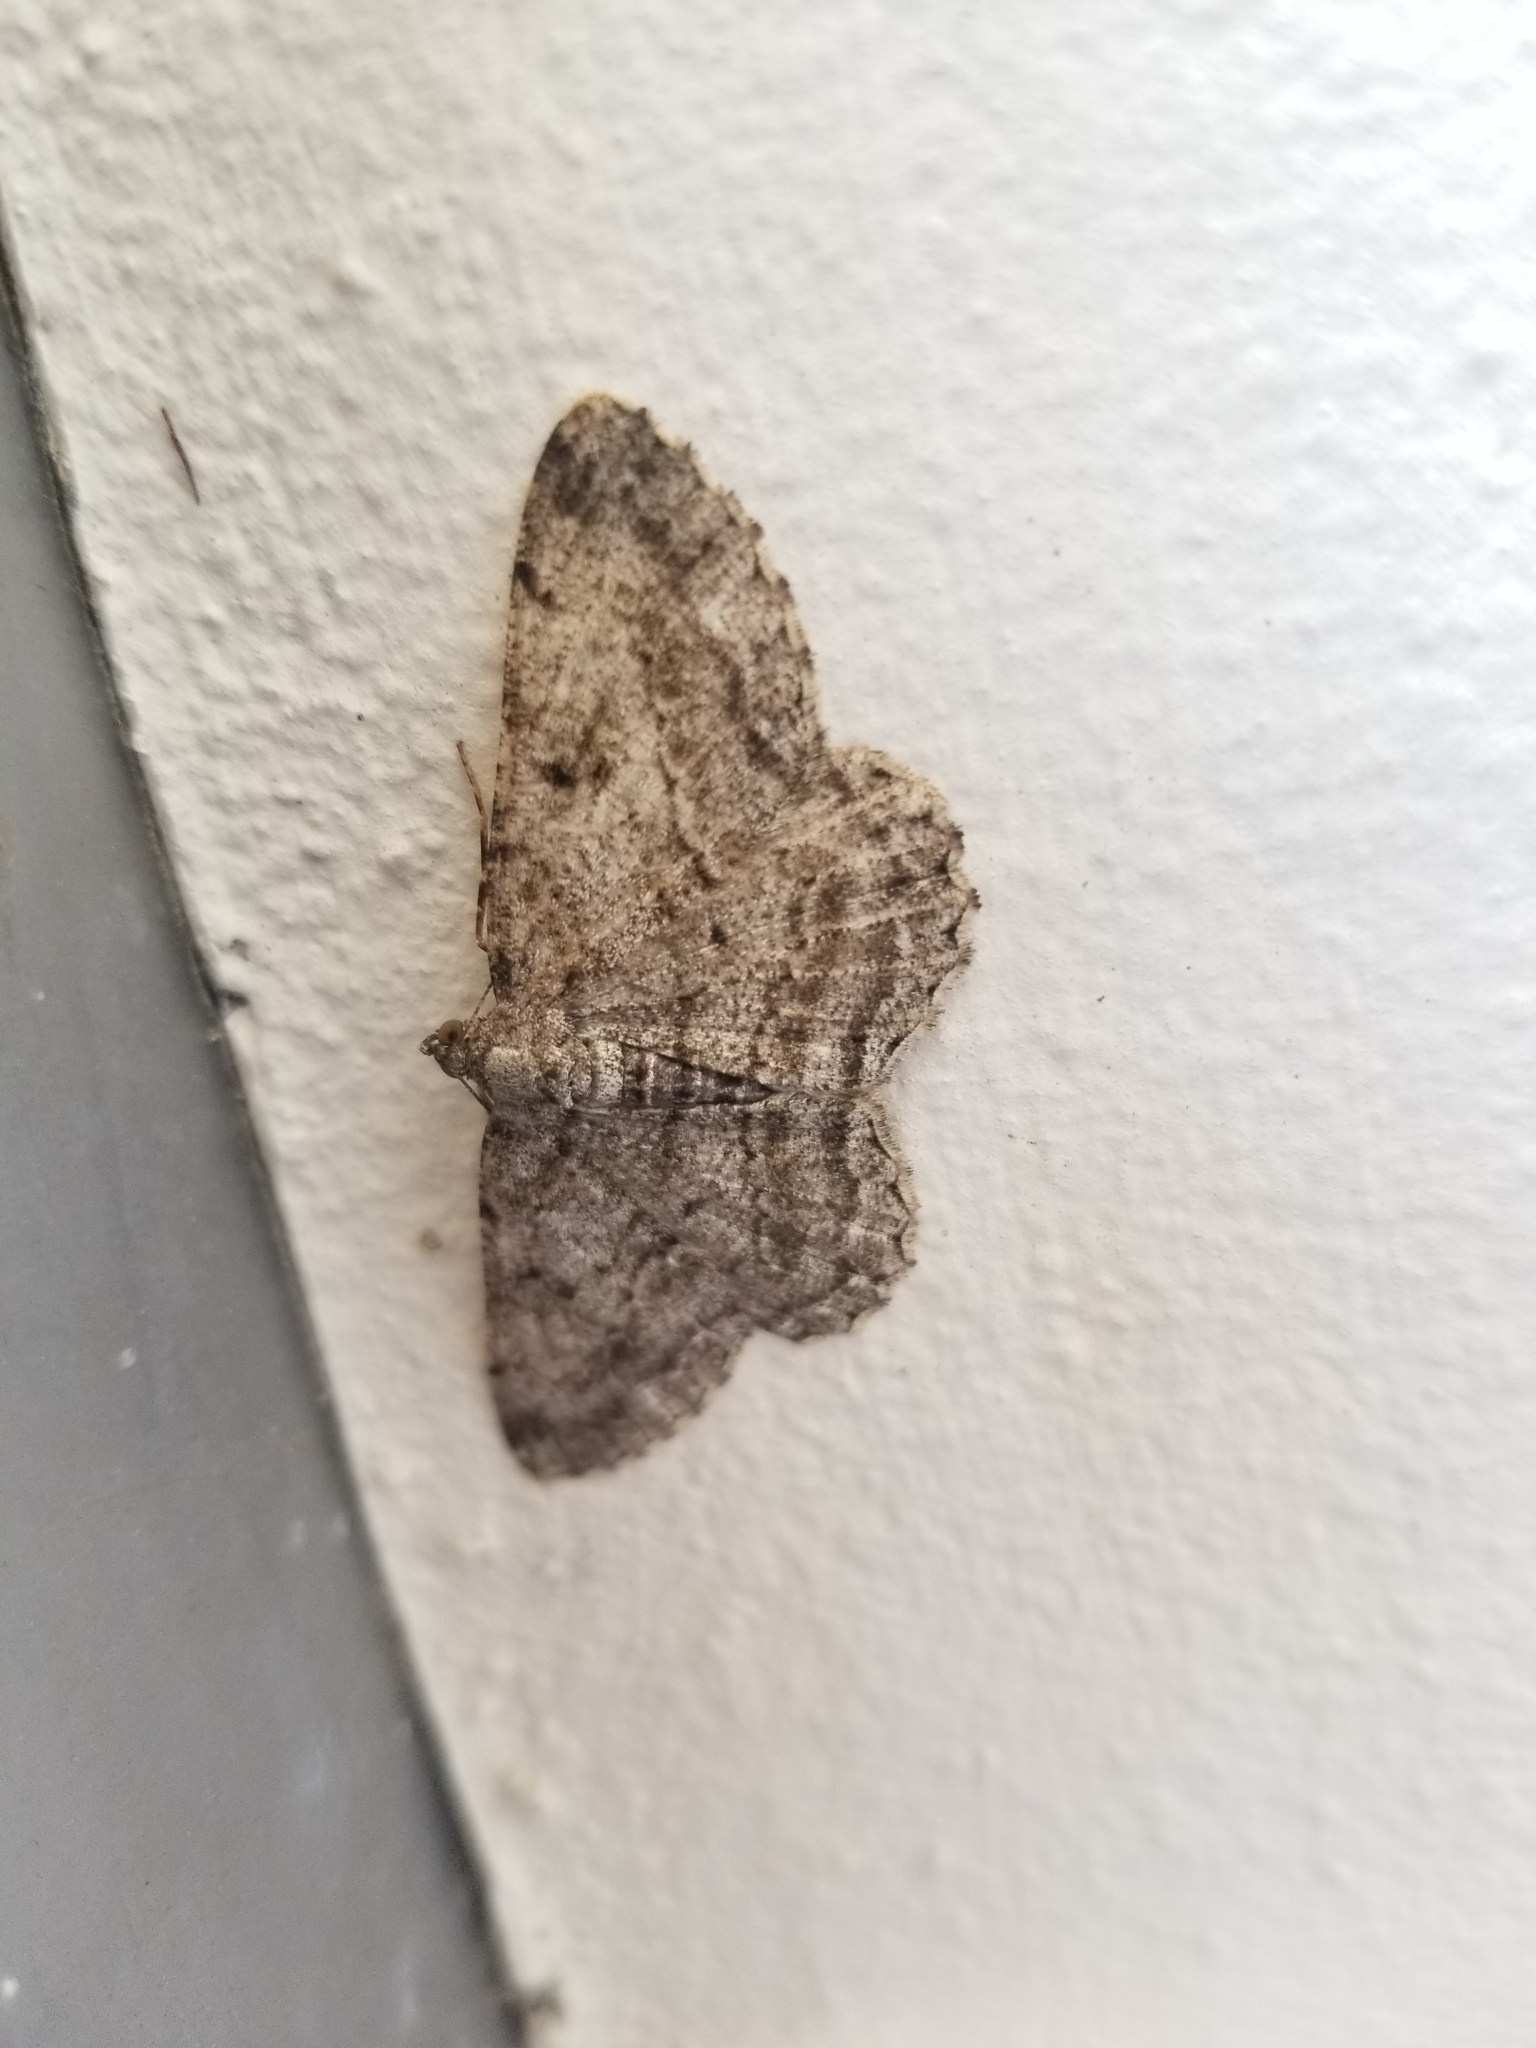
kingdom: Animalia
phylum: Arthropoda
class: Insecta
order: Lepidoptera
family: Geometridae
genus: Peribatodes
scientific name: Peribatodes rhomboidaria
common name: Willow beauty
